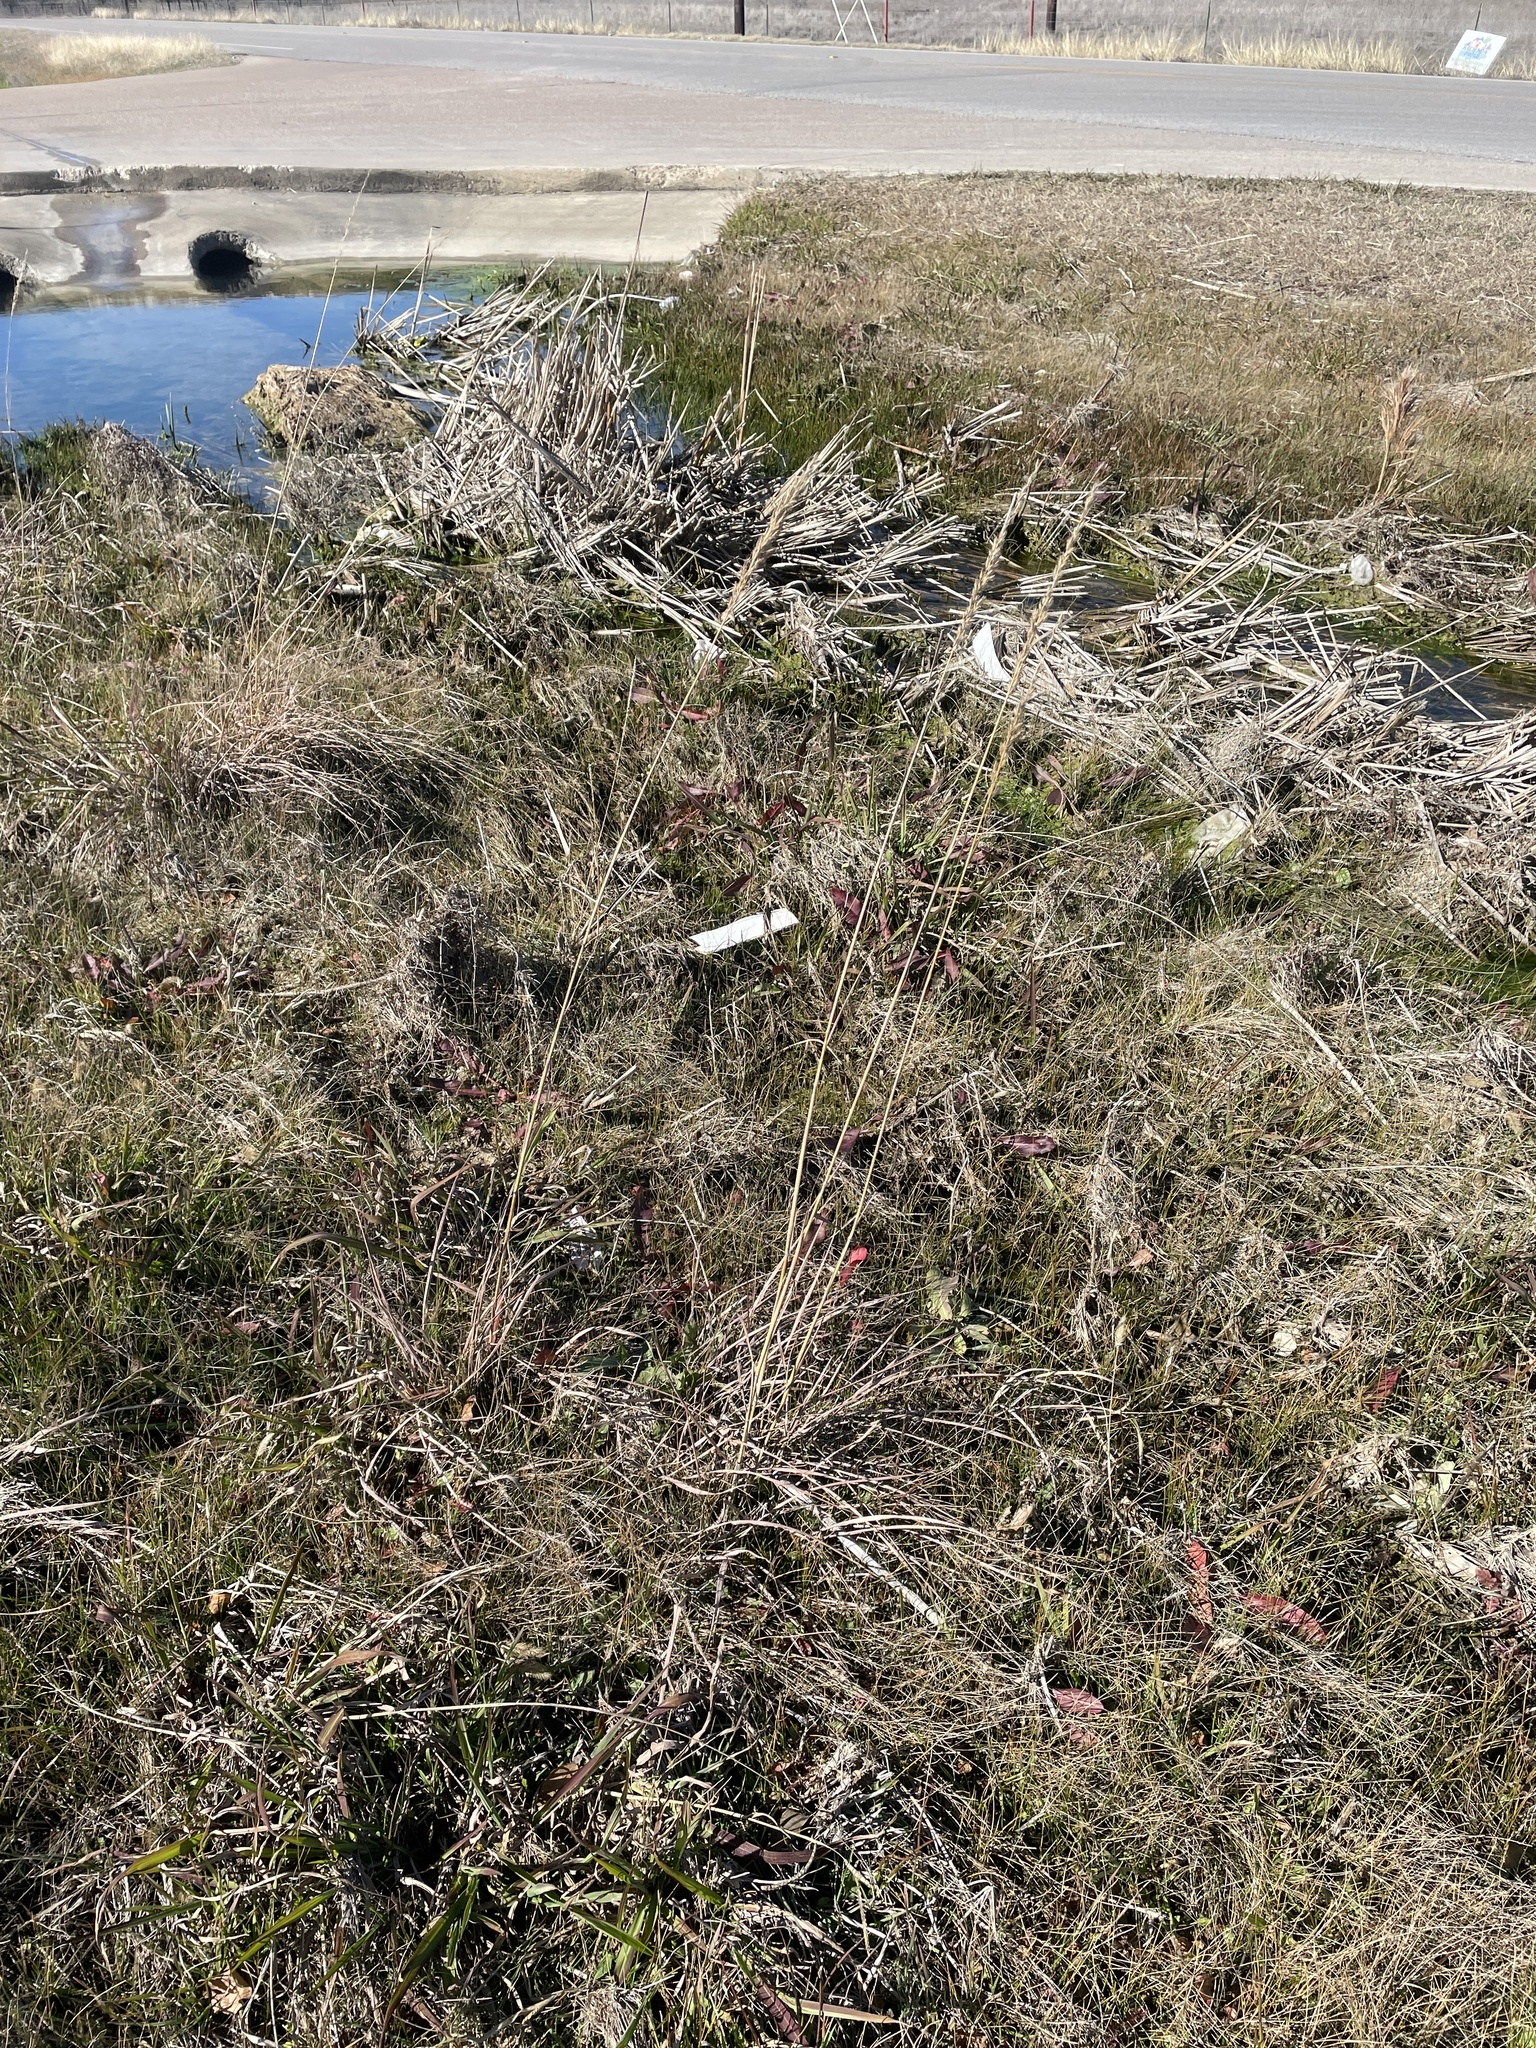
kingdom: Plantae
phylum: Tracheophyta
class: Liliopsida
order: Poales
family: Poaceae
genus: Sorghastrum
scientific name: Sorghastrum nutans
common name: Indian grass
